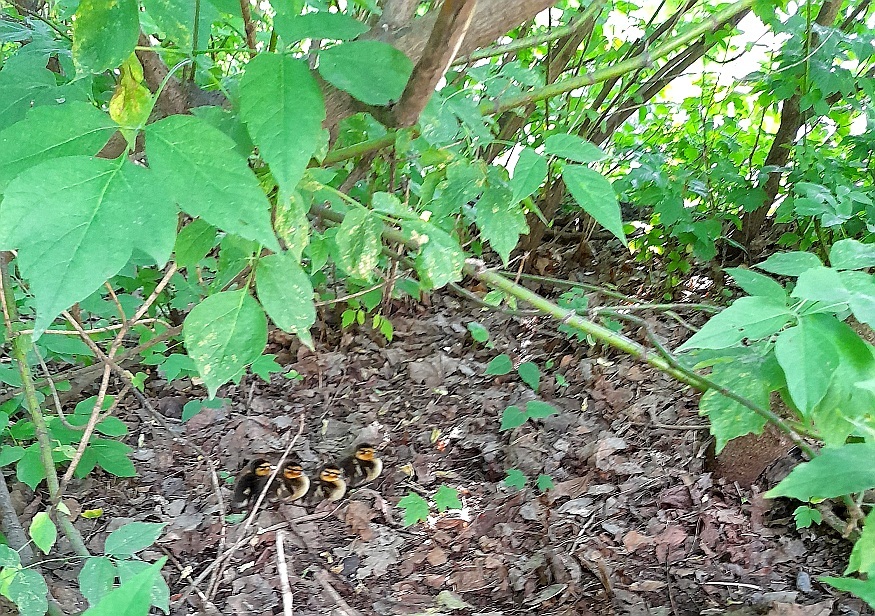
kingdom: Plantae
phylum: Tracheophyta
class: Magnoliopsida
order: Sapindales
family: Sapindaceae
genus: Acer
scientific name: Acer negundo
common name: Ashleaf maple
